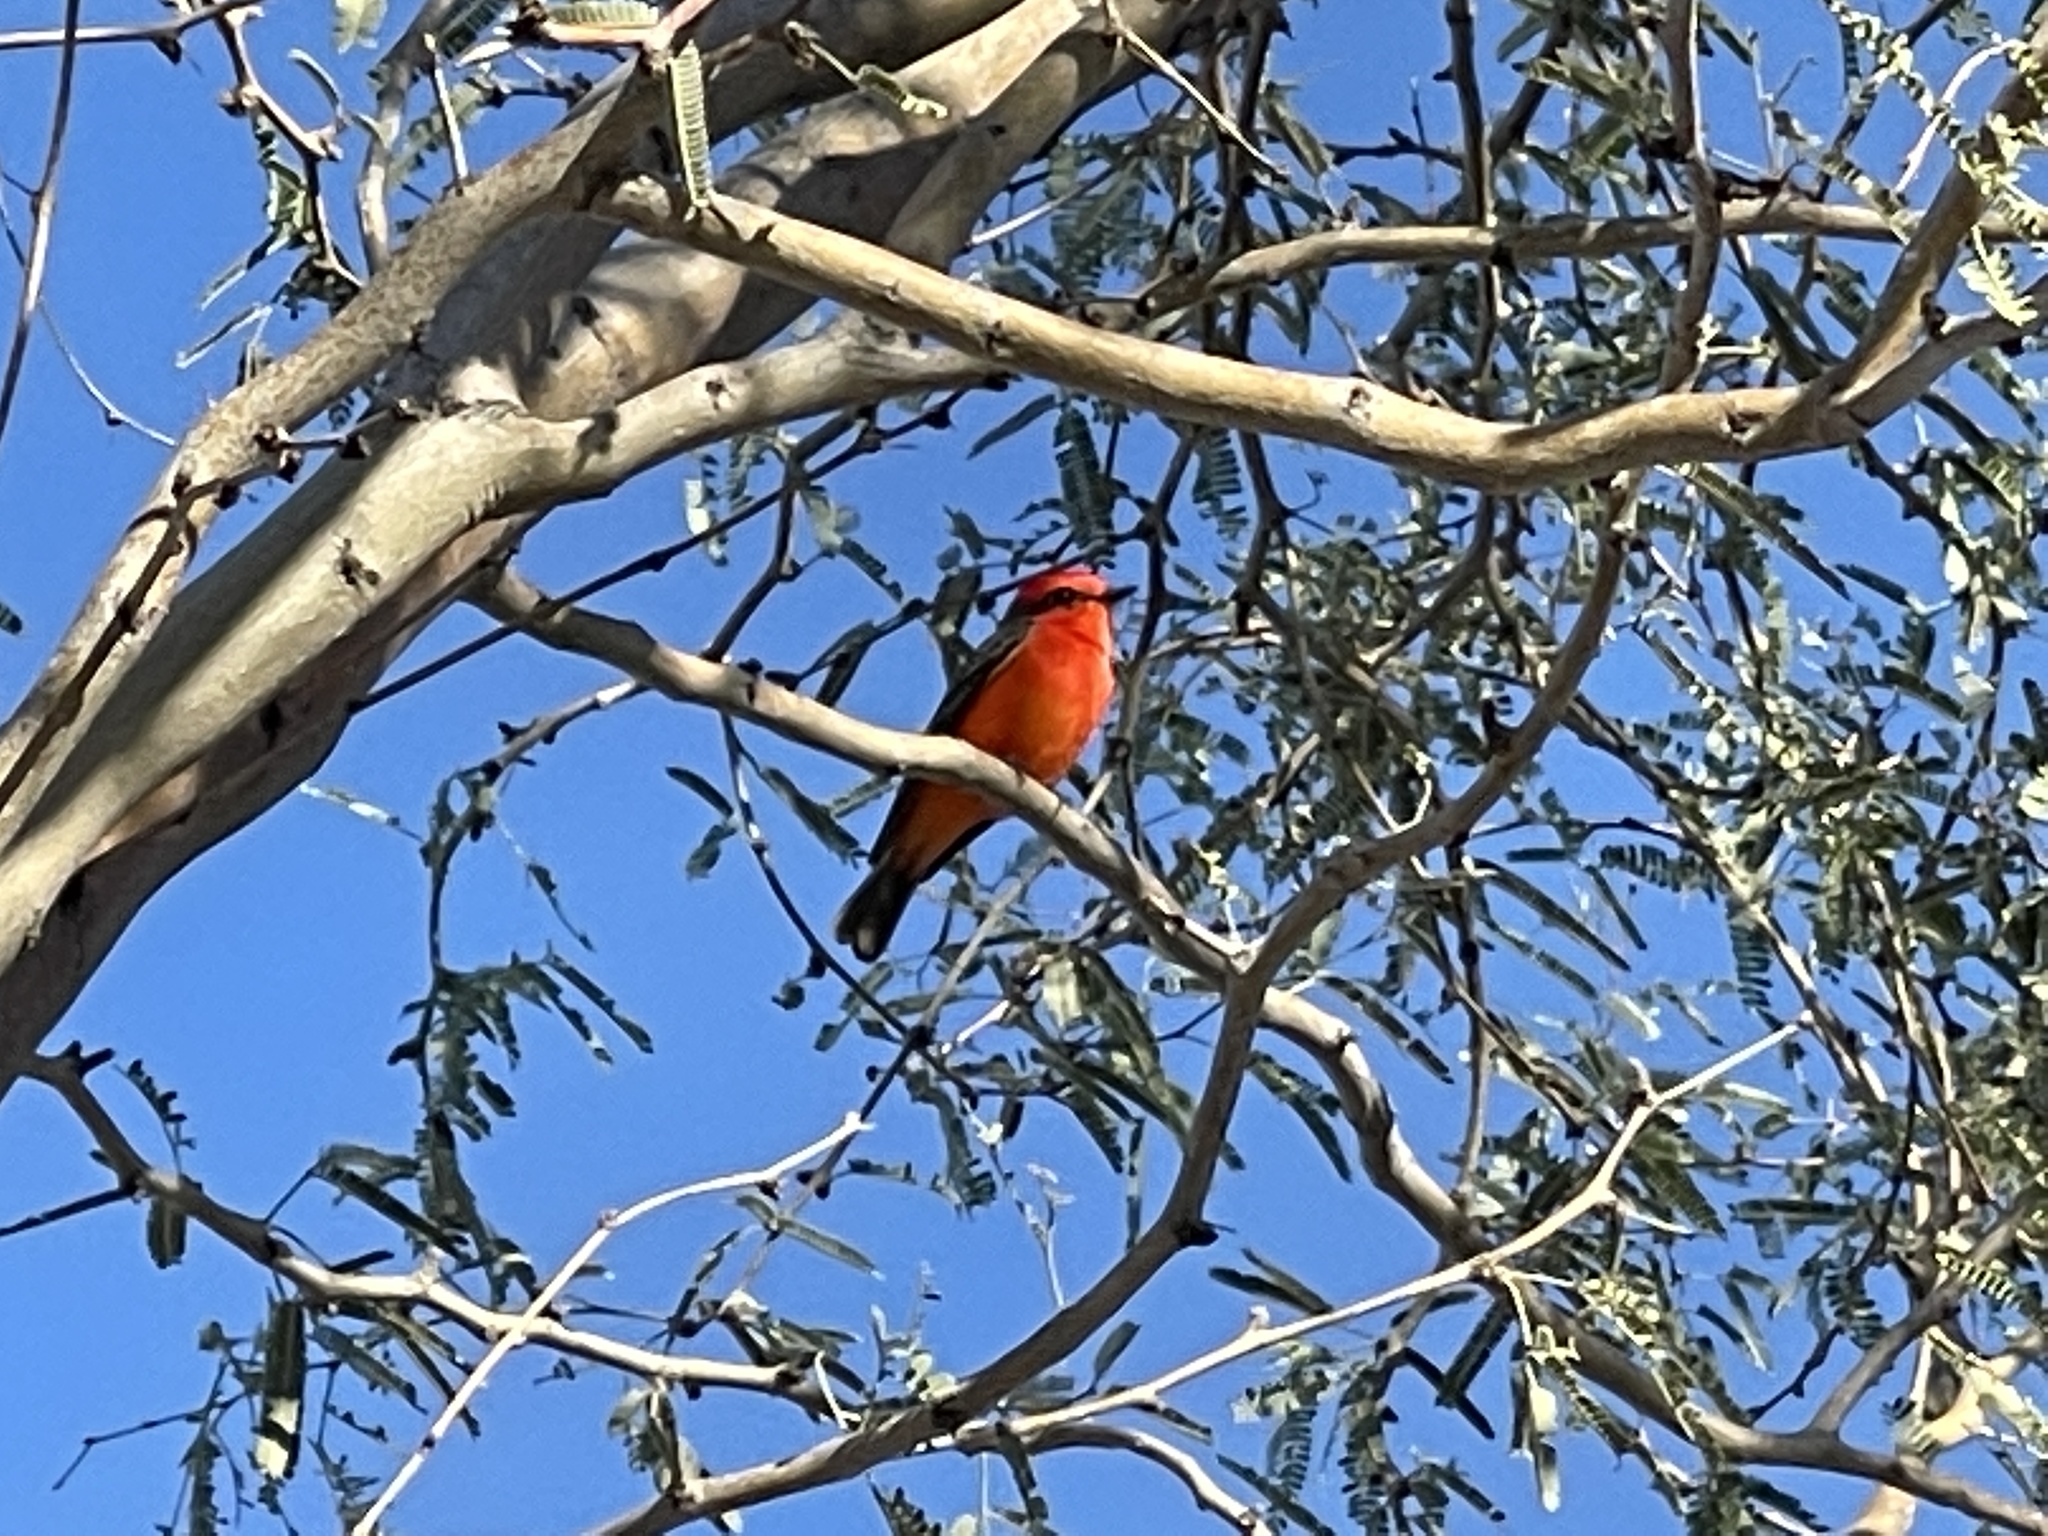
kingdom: Animalia
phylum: Chordata
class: Aves
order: Passeriformes
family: Tyrannidae
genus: Pyrocephalus
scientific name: Pyrocephalus rubinus
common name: Vermilion flycatcher
